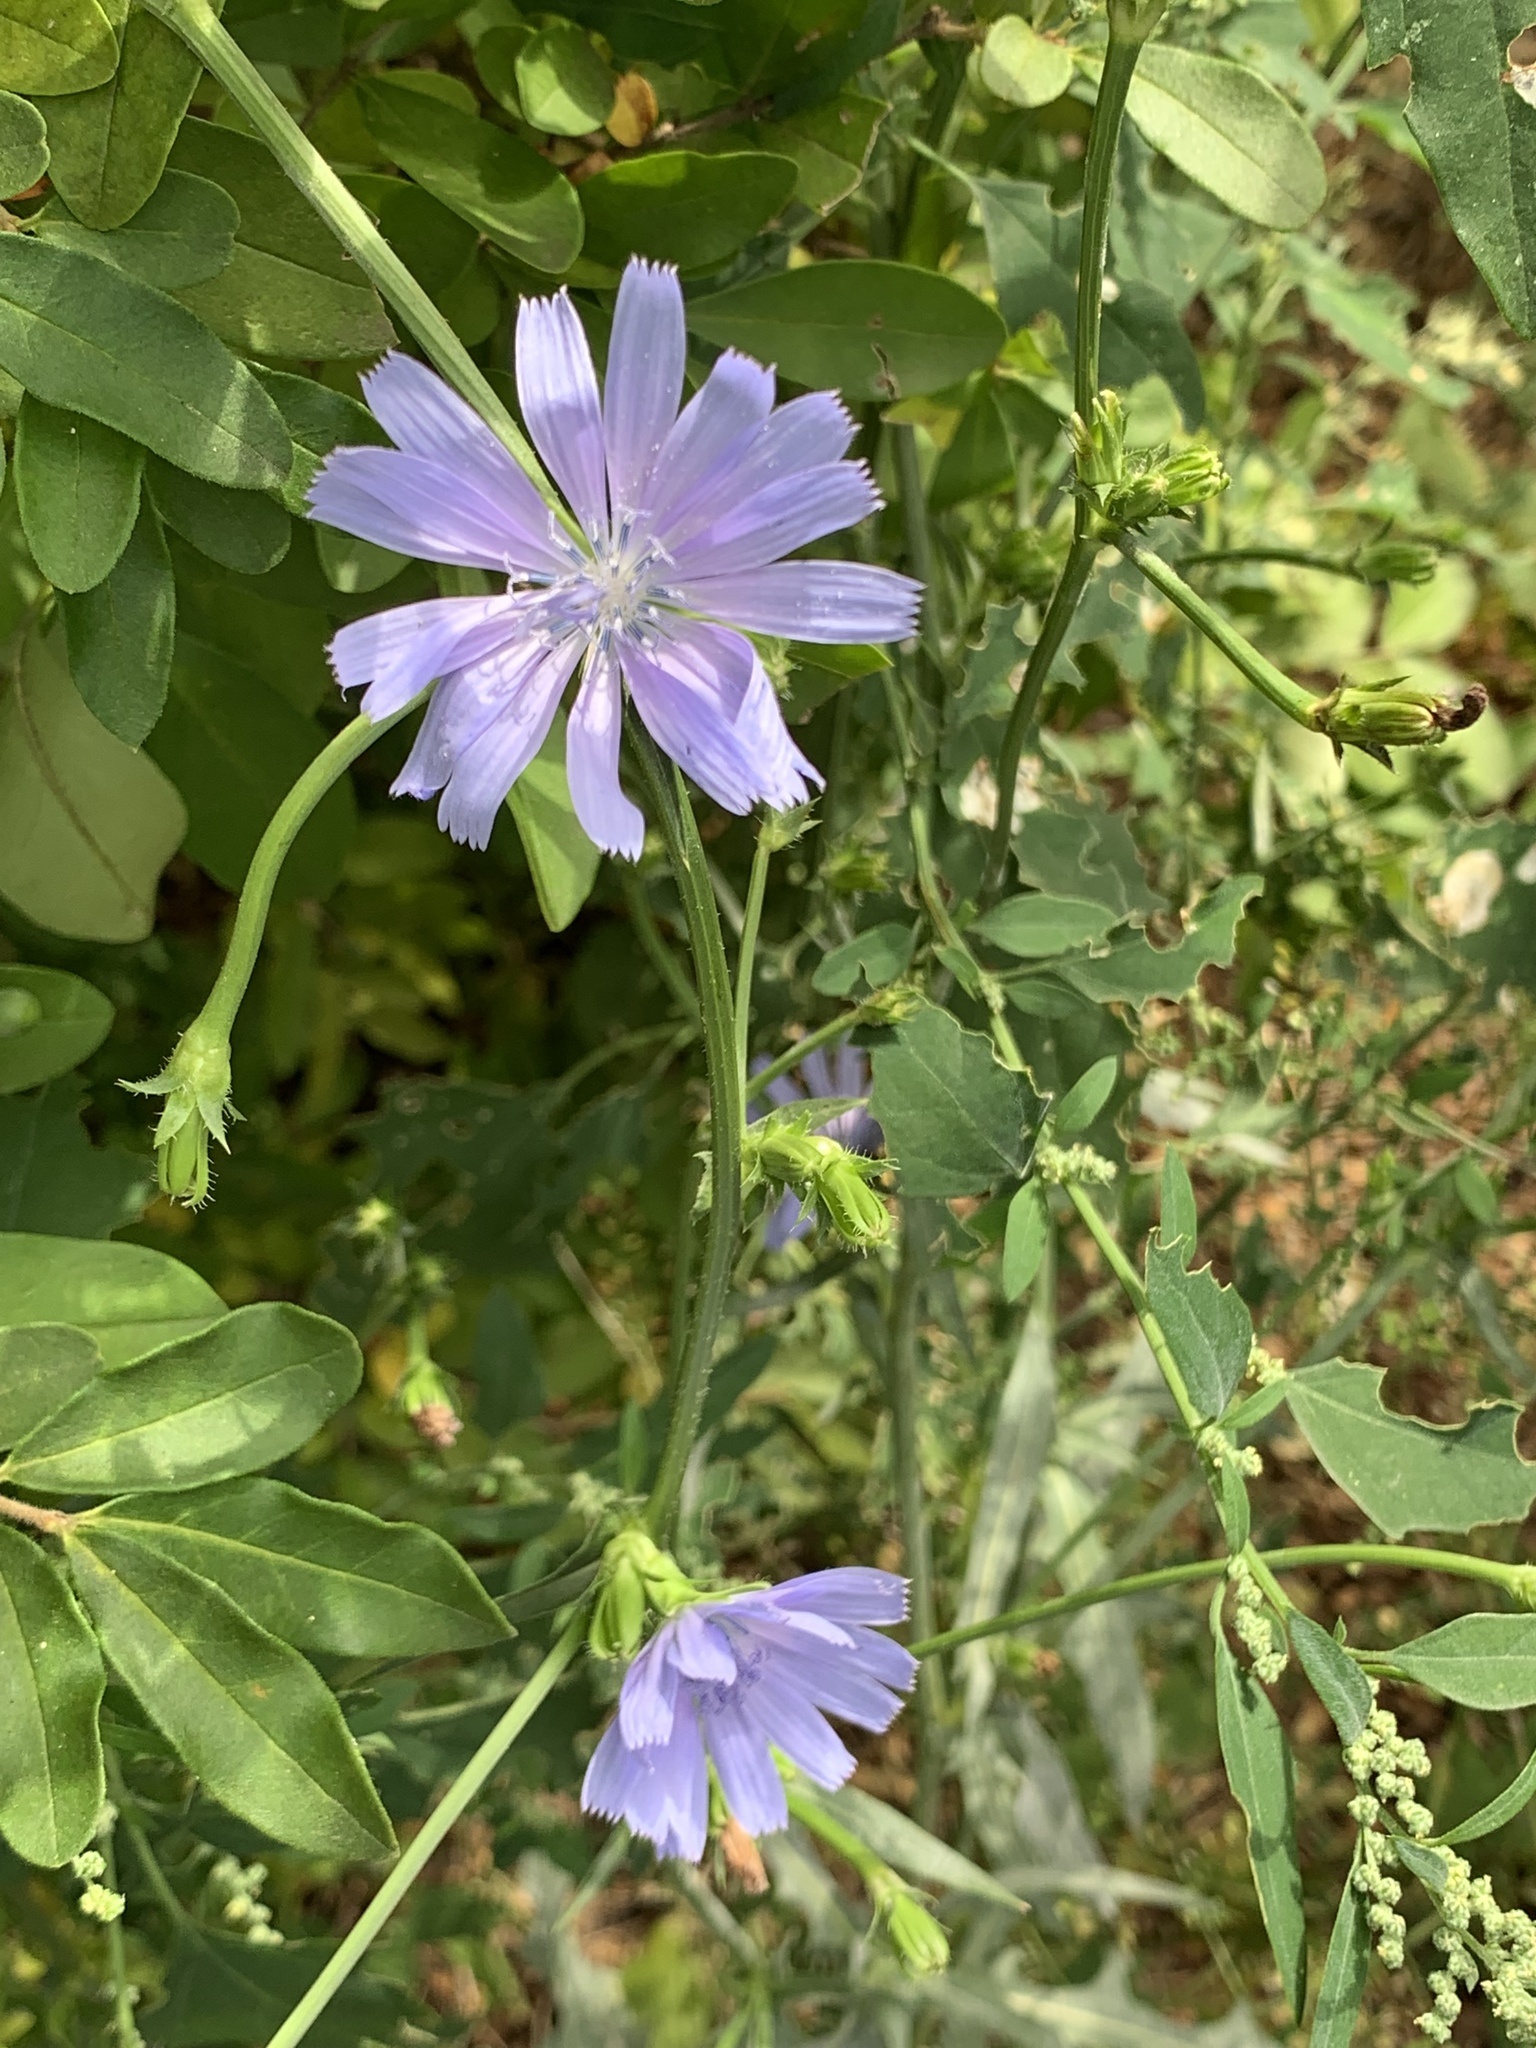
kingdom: Plantae
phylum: Tracheophyta
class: Magnoliopsida
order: Asterales
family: Asteraceae
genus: Cichorium
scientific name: Cichorium intybus
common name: Chicory
